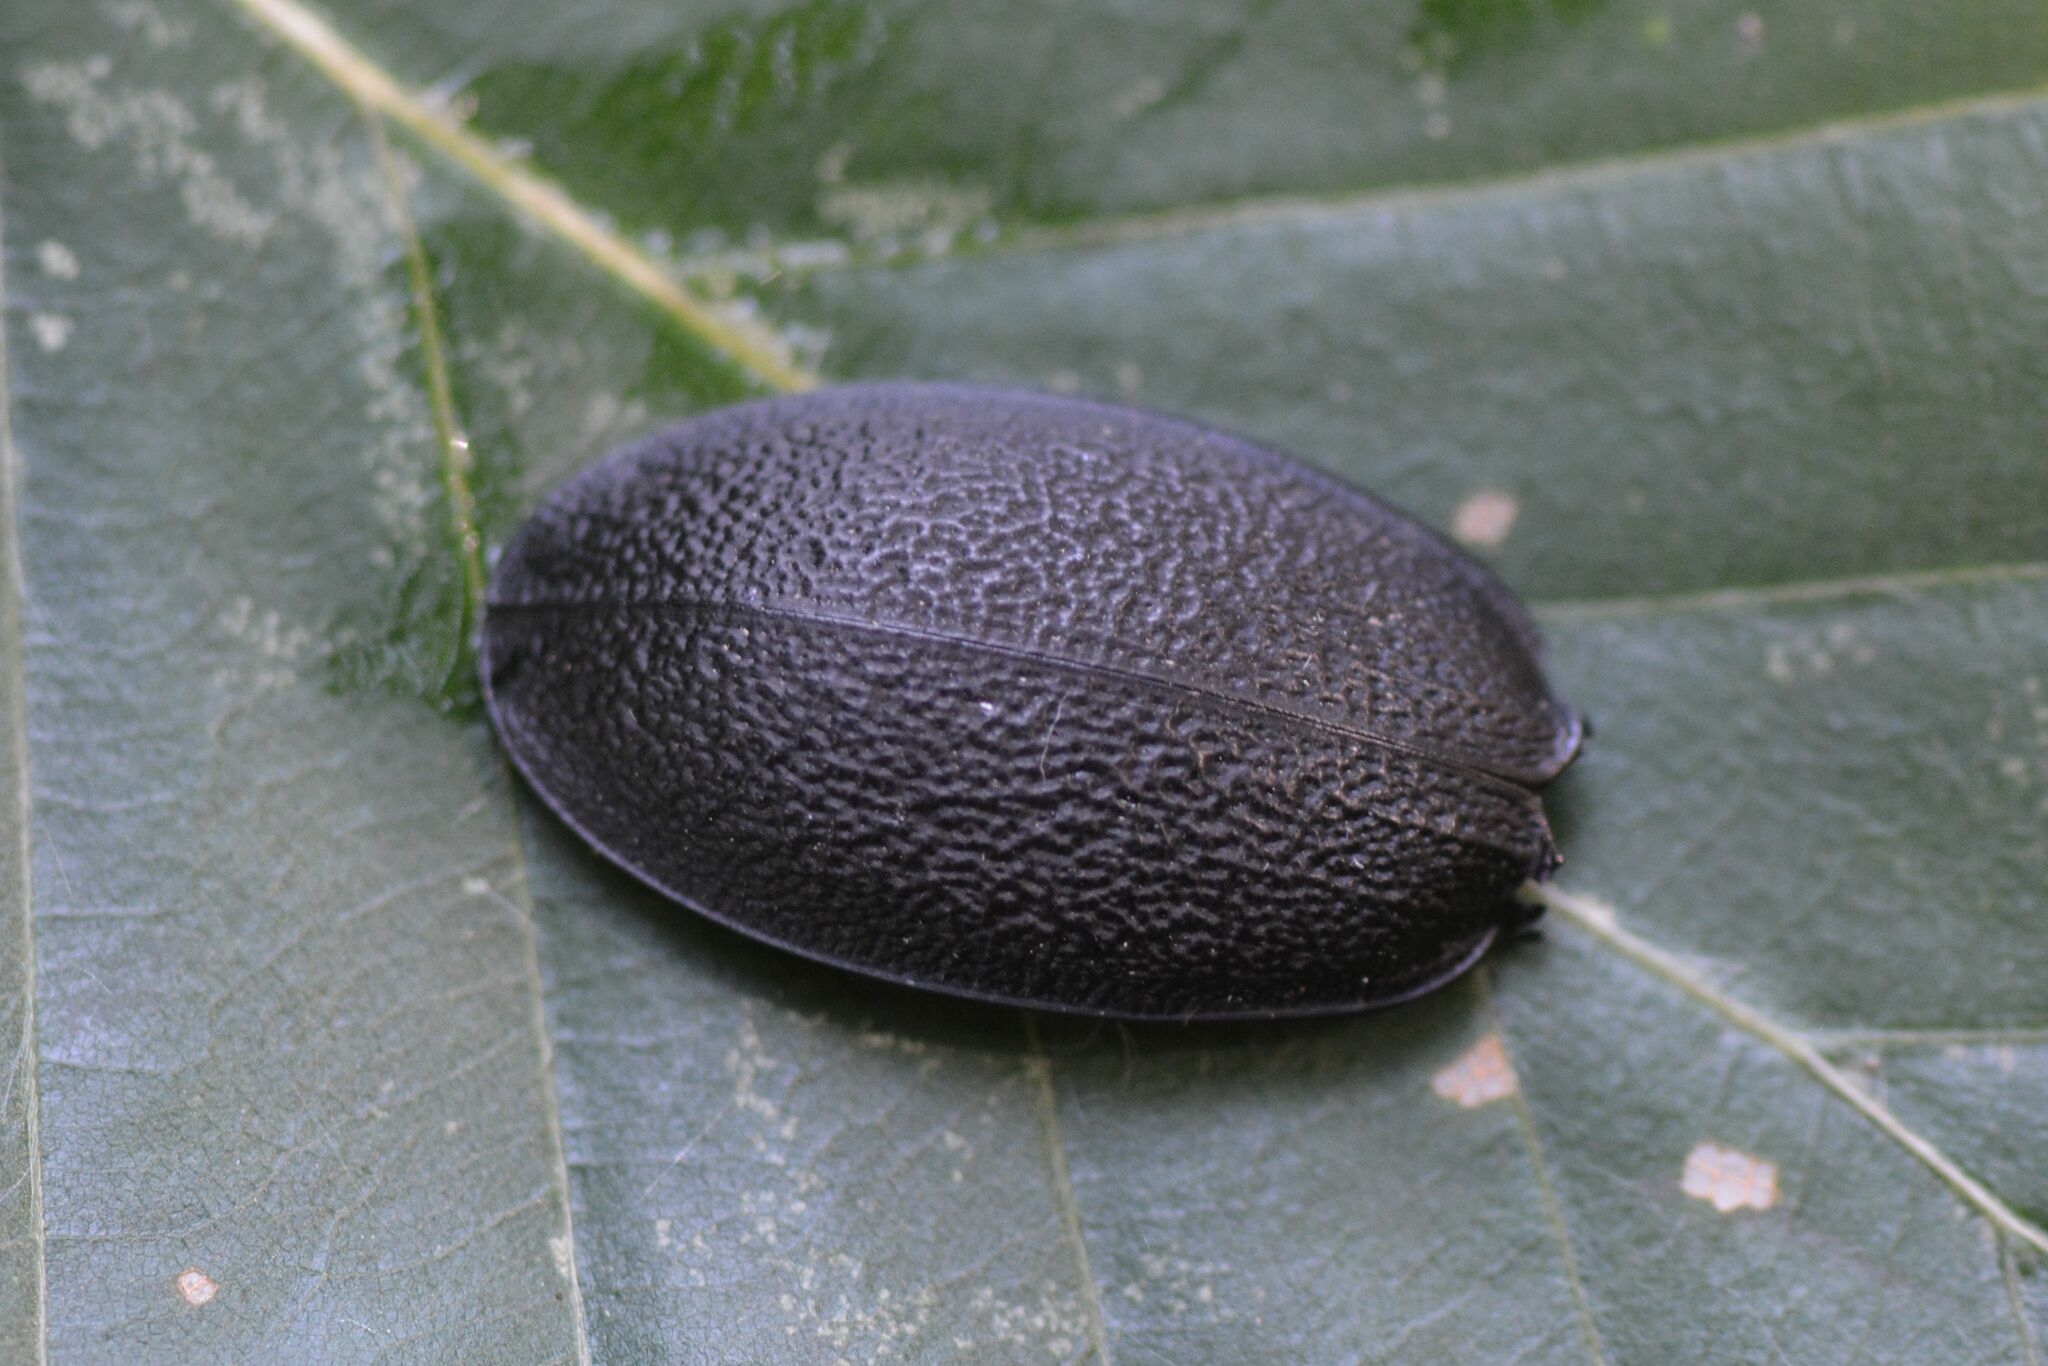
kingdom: Animalia
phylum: Arthropoda
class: Insecta
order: Coleoptera
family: Carabidae
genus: Carabus
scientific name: Carabus coriaceus
